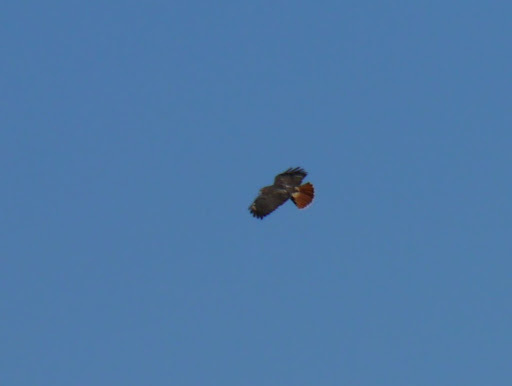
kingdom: Animalia
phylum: Chordata
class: Aves
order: Accipitriformes
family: Accipitridae
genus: Buteo
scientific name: Buteo jamaicensis
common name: Red-tailed hawk
